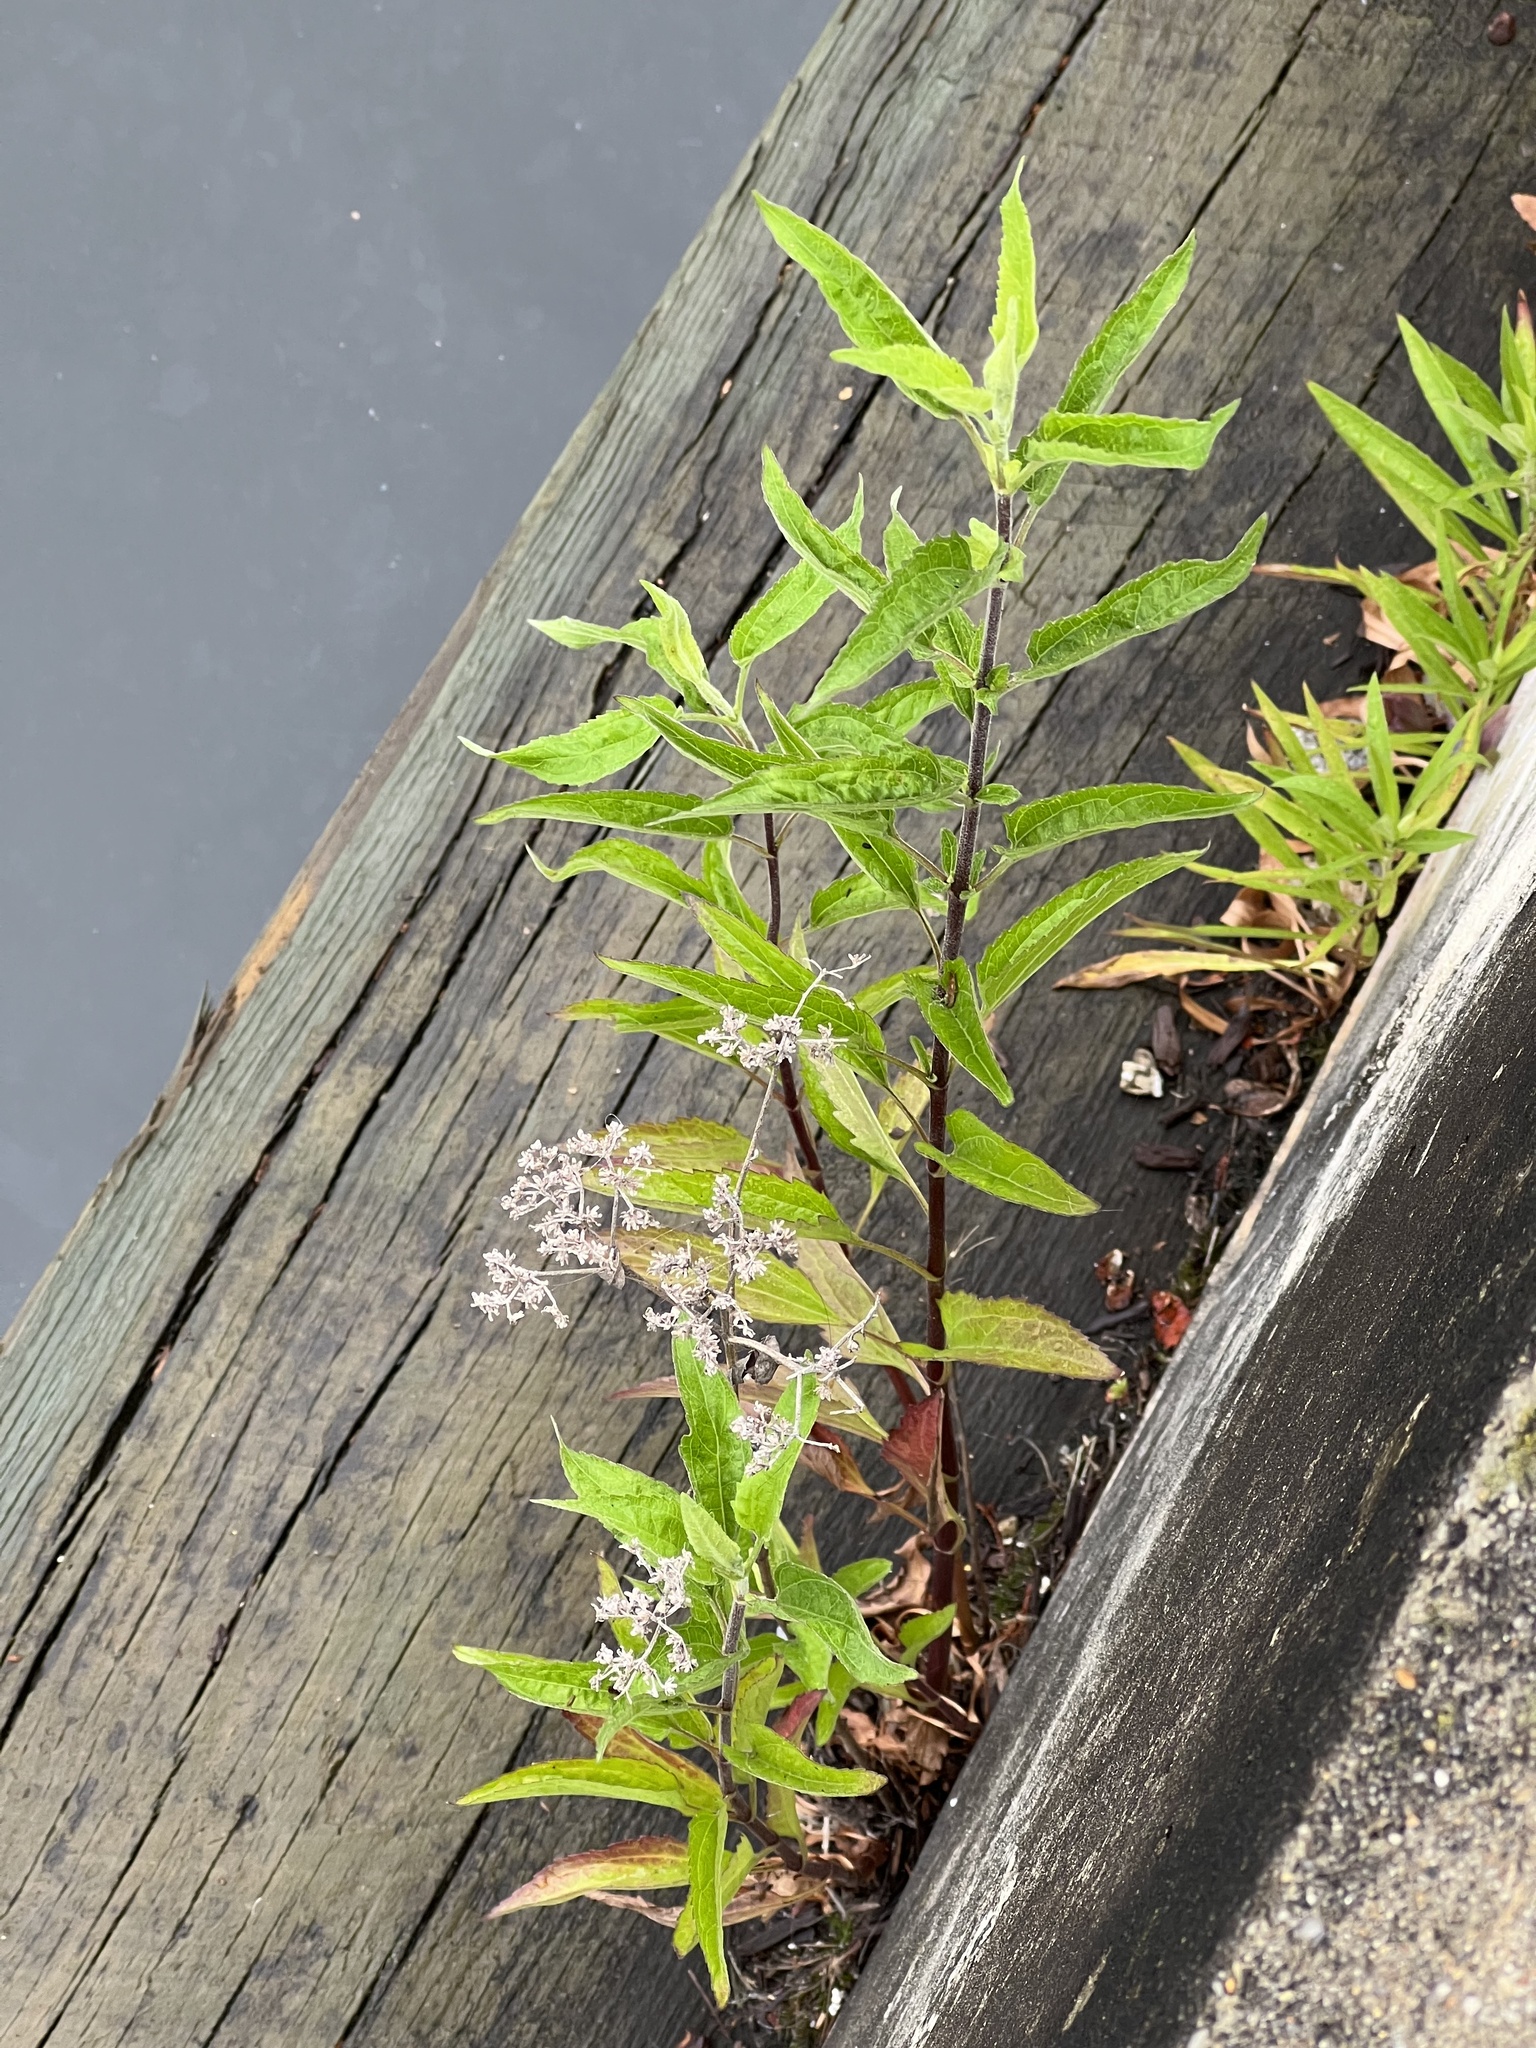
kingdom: Plantae
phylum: Tracheophyta
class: Magnoliopsida
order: Asterales
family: Asteraceae
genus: Eupatorium
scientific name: Eupatorium serotinum
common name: Late boneset
